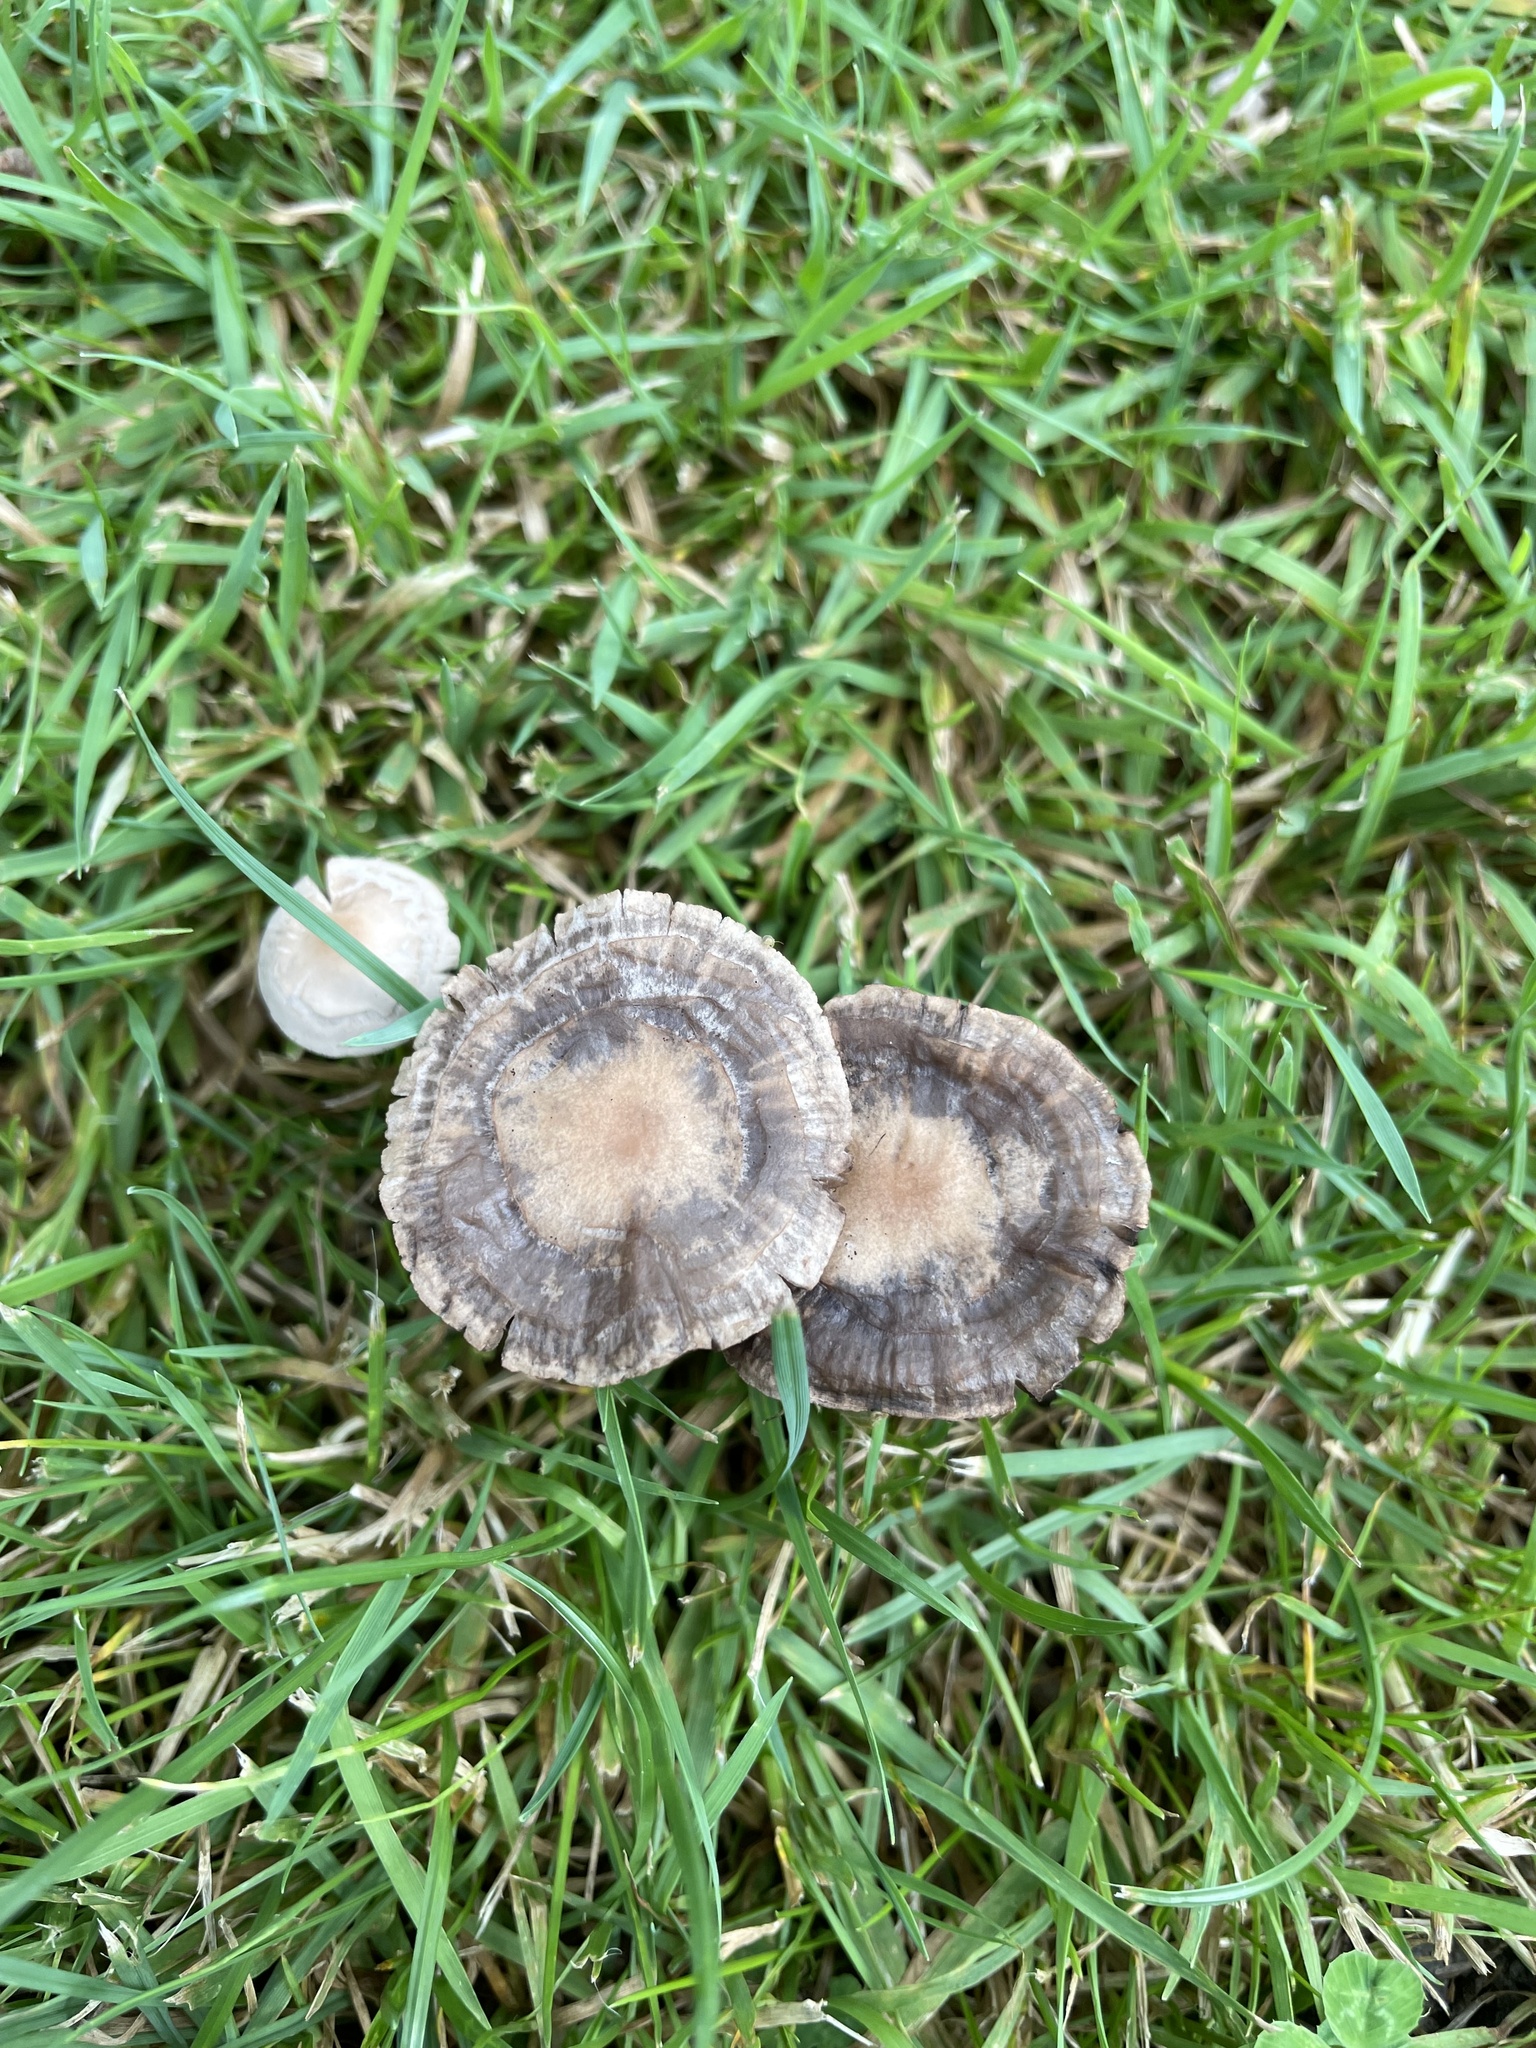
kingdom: Fungi
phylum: Basidiomycota
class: Agaricomycetes
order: Agaricales
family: Bolbitiaceae
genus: Panaeolina
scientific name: Panaeolina foenisecii
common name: Brown hay cap
